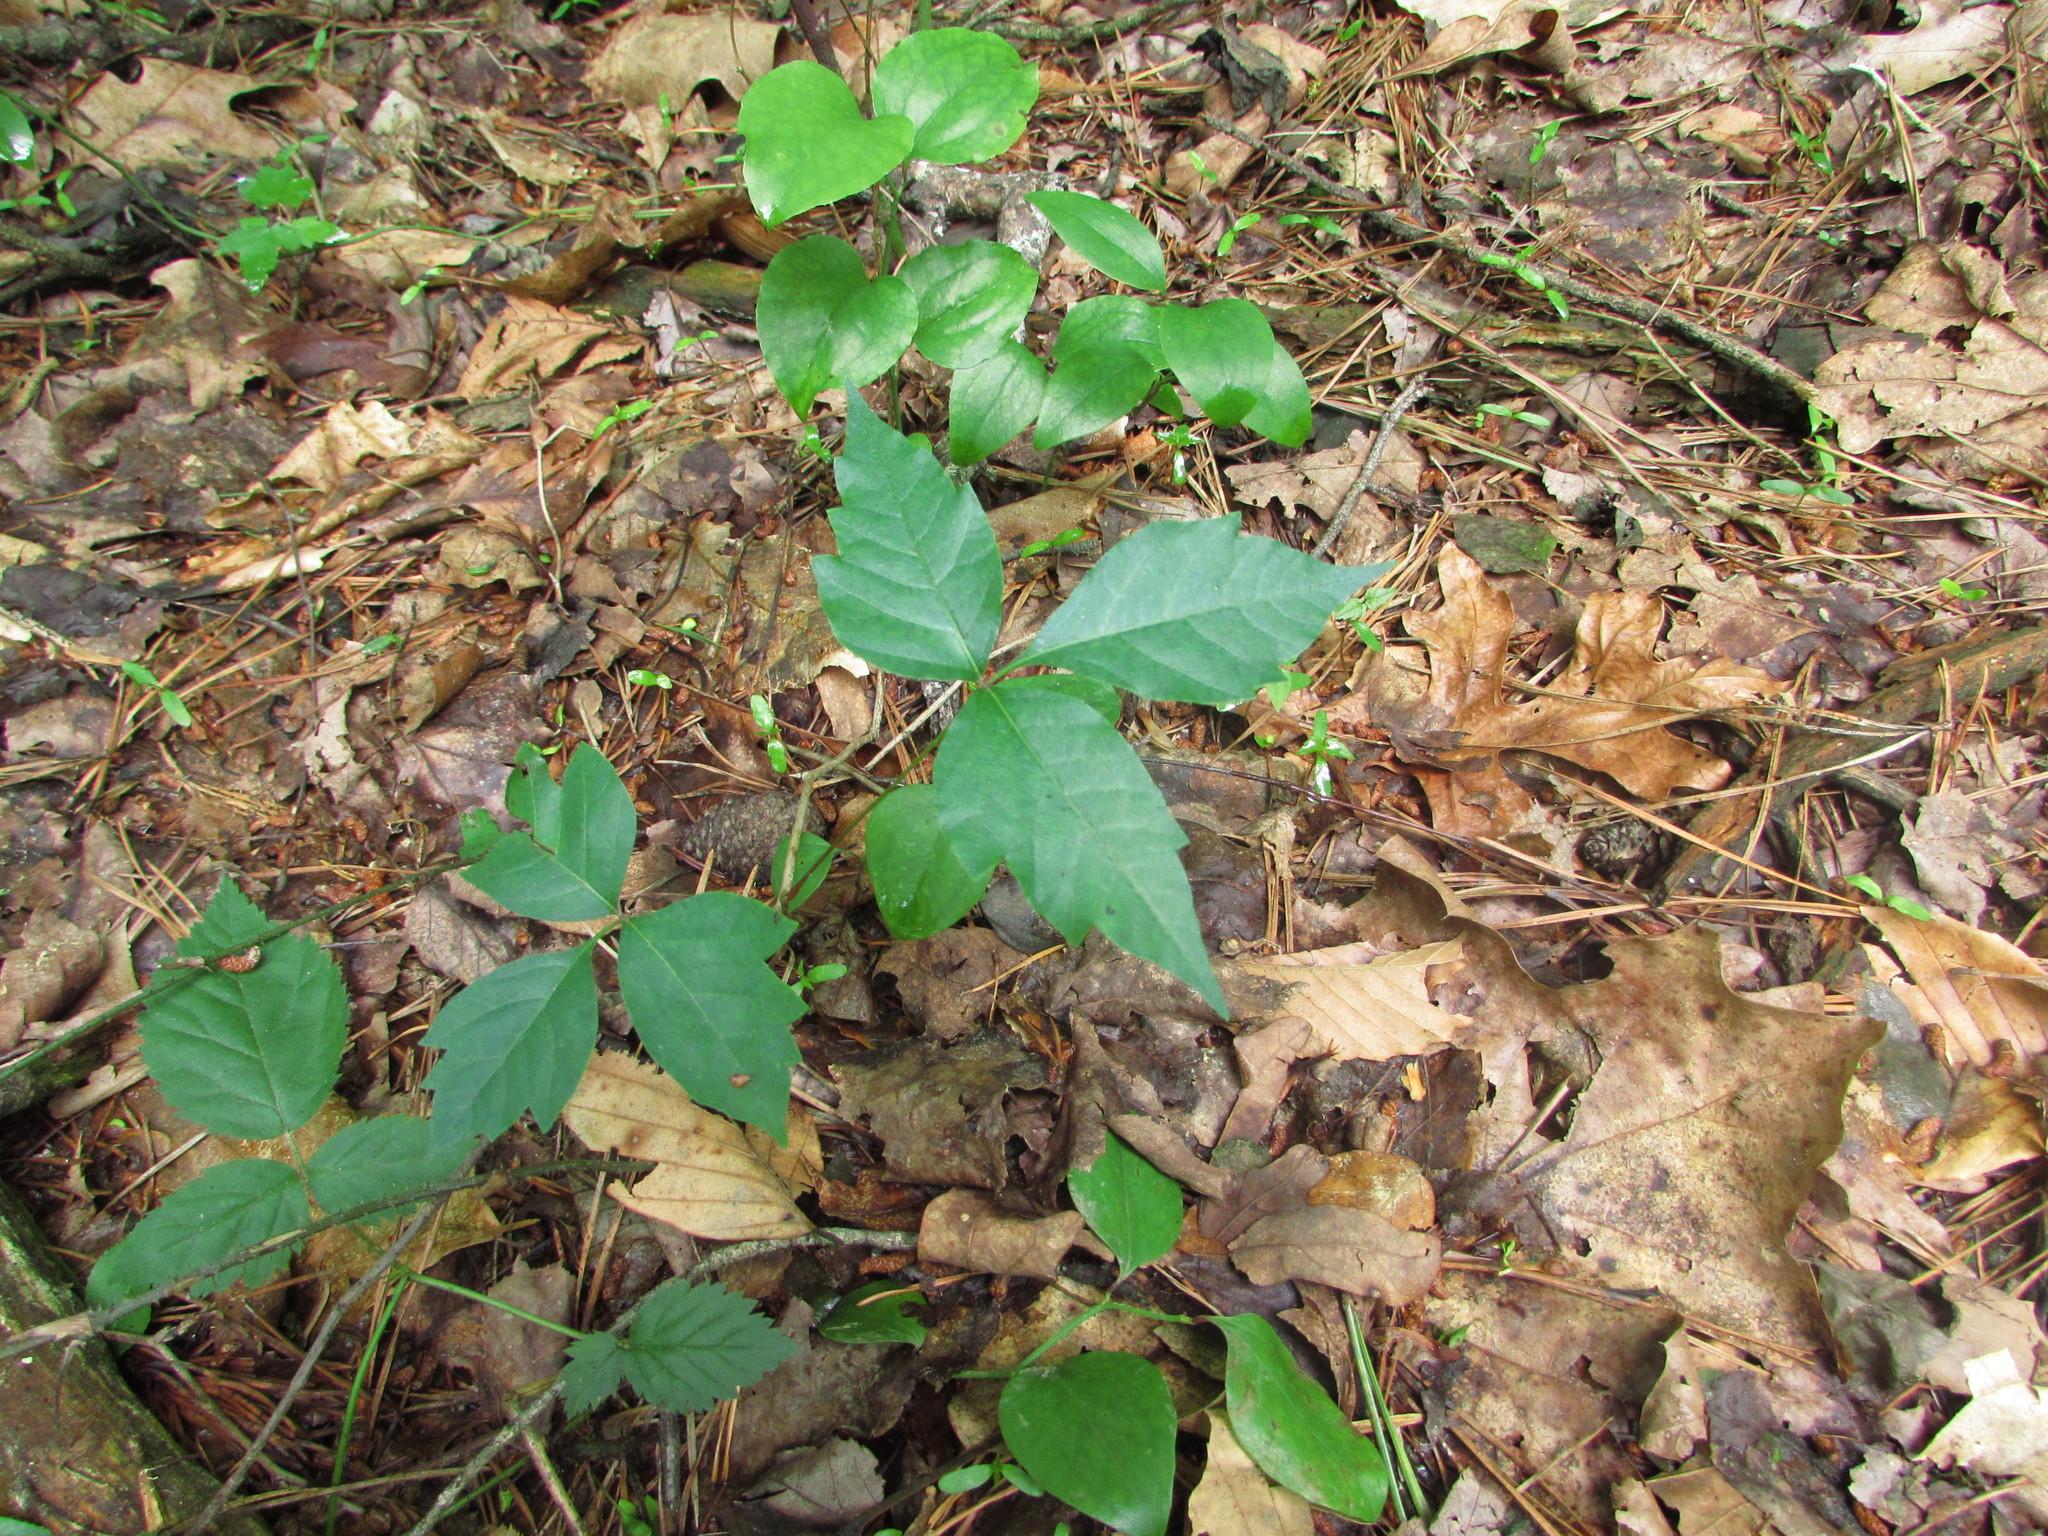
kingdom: Plantae
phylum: Tracheophyta
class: Magnoliopsida
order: Sapindales
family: Anacardiaceae
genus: Toxicodendron
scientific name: Toxicodendron radicans
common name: Poison ivy
